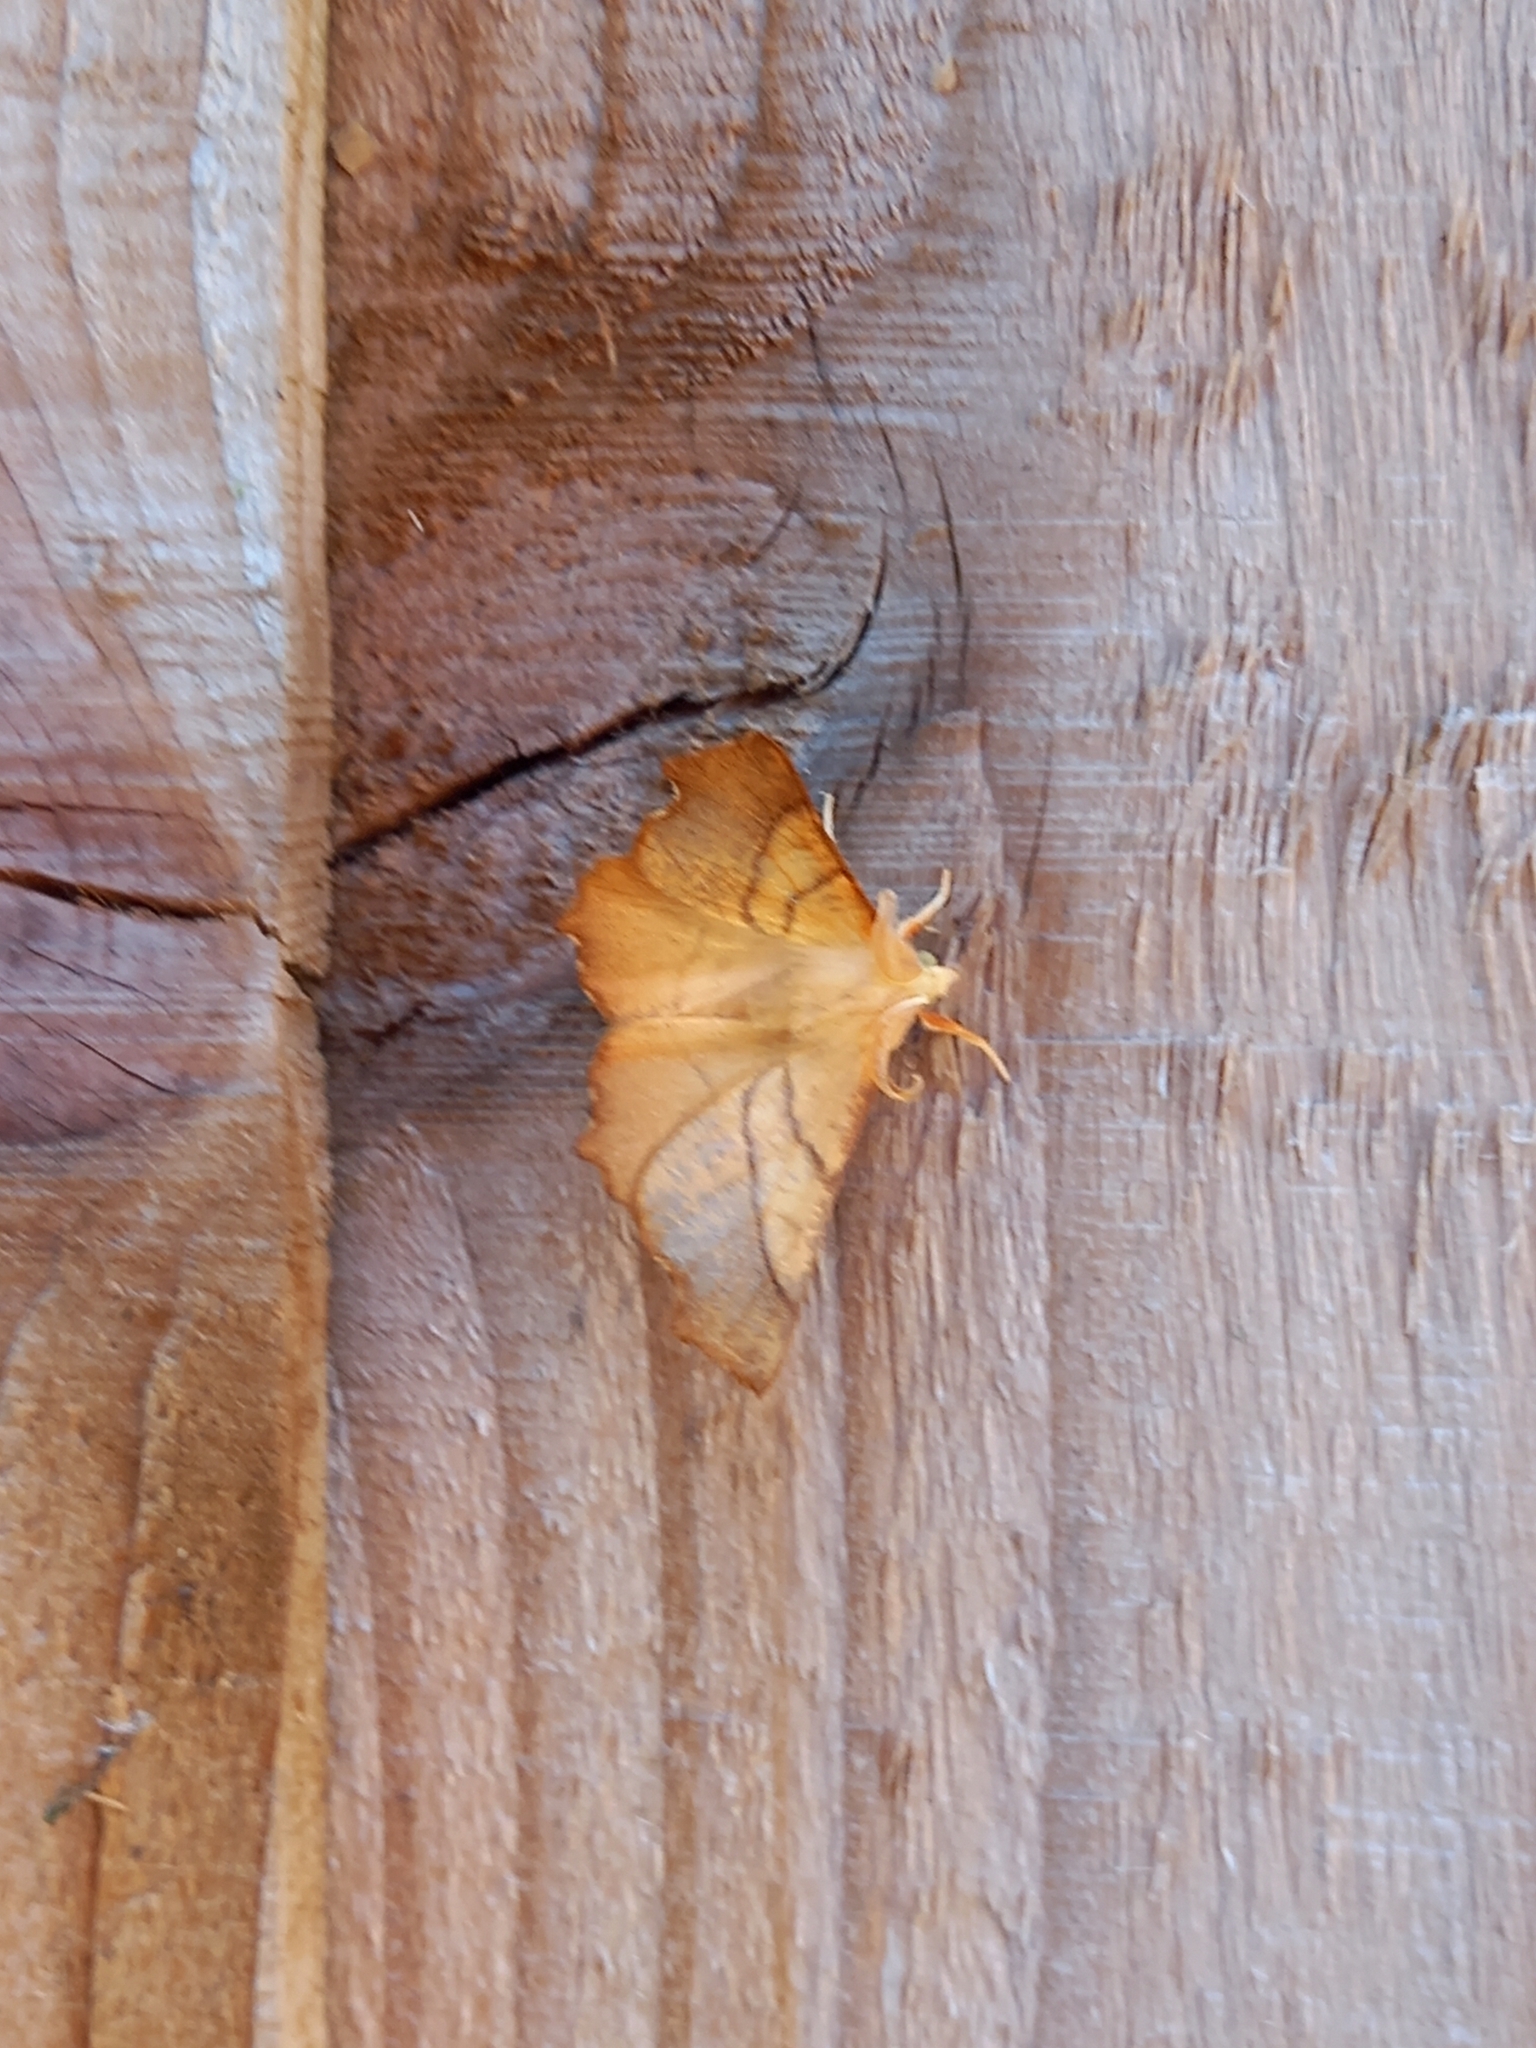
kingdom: Animalia
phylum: Arthropoda
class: Insecta
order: Lepidoptera
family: Geometridae
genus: Ennomos
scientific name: Ennomos fuscantaria
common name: Dusky thorn
